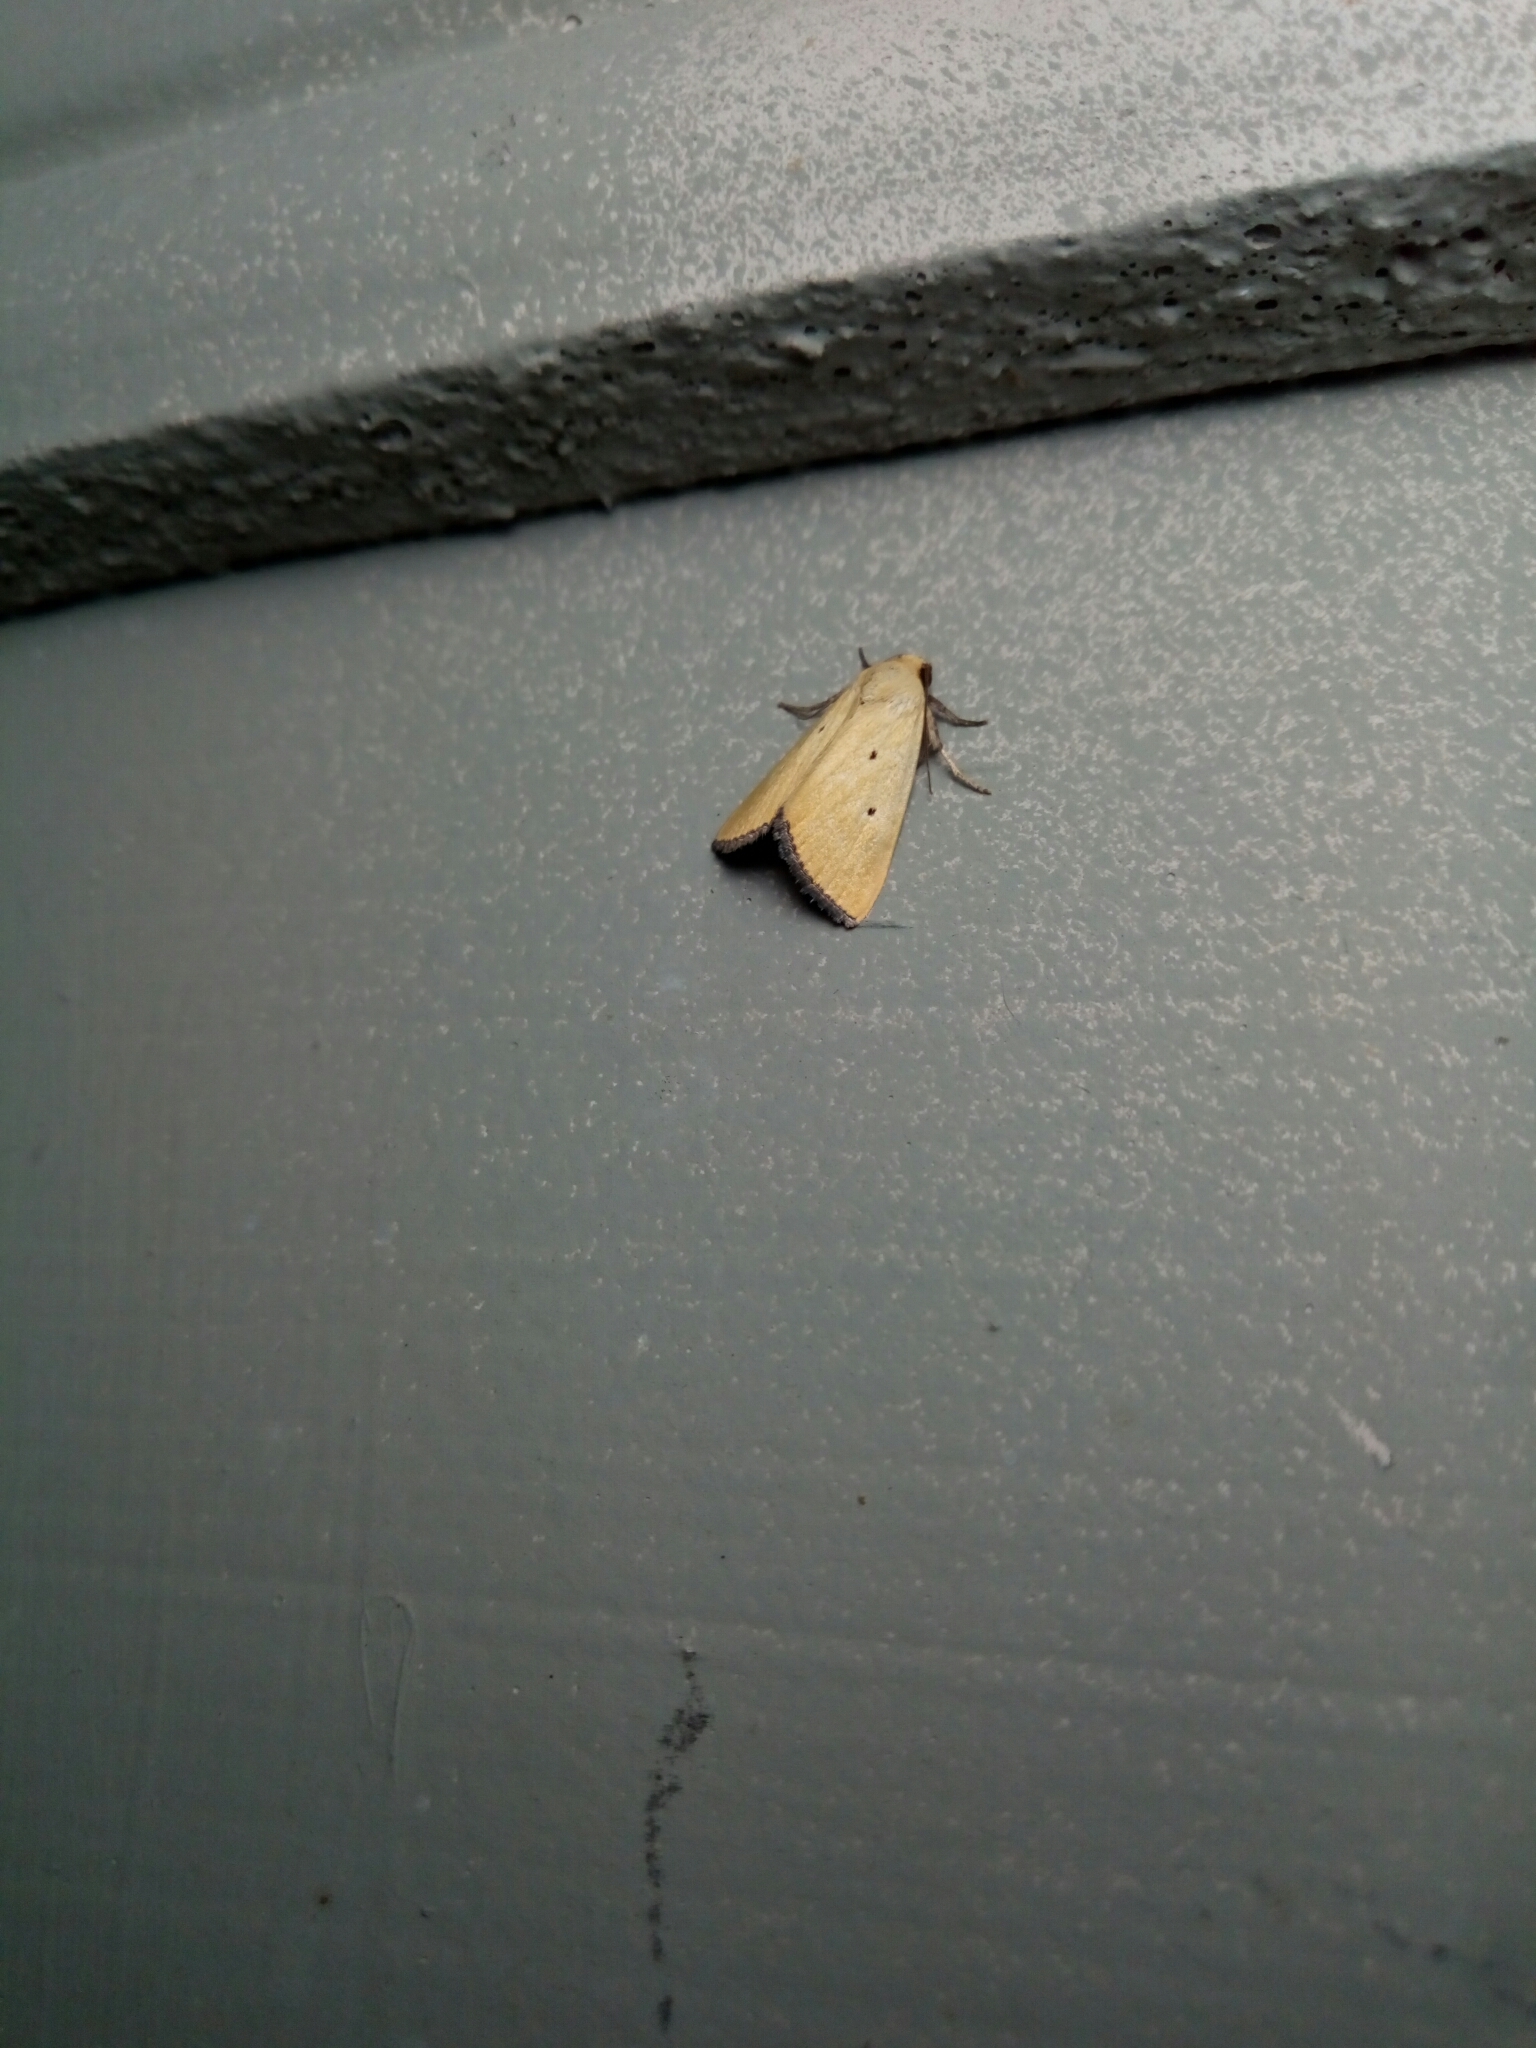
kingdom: Animalia
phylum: Arthropoda
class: Insecta
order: Lepidoptera
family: Noctuidae
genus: Marimatha
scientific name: Marimatha nigrofimbria
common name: Black-bordered lemon moth
